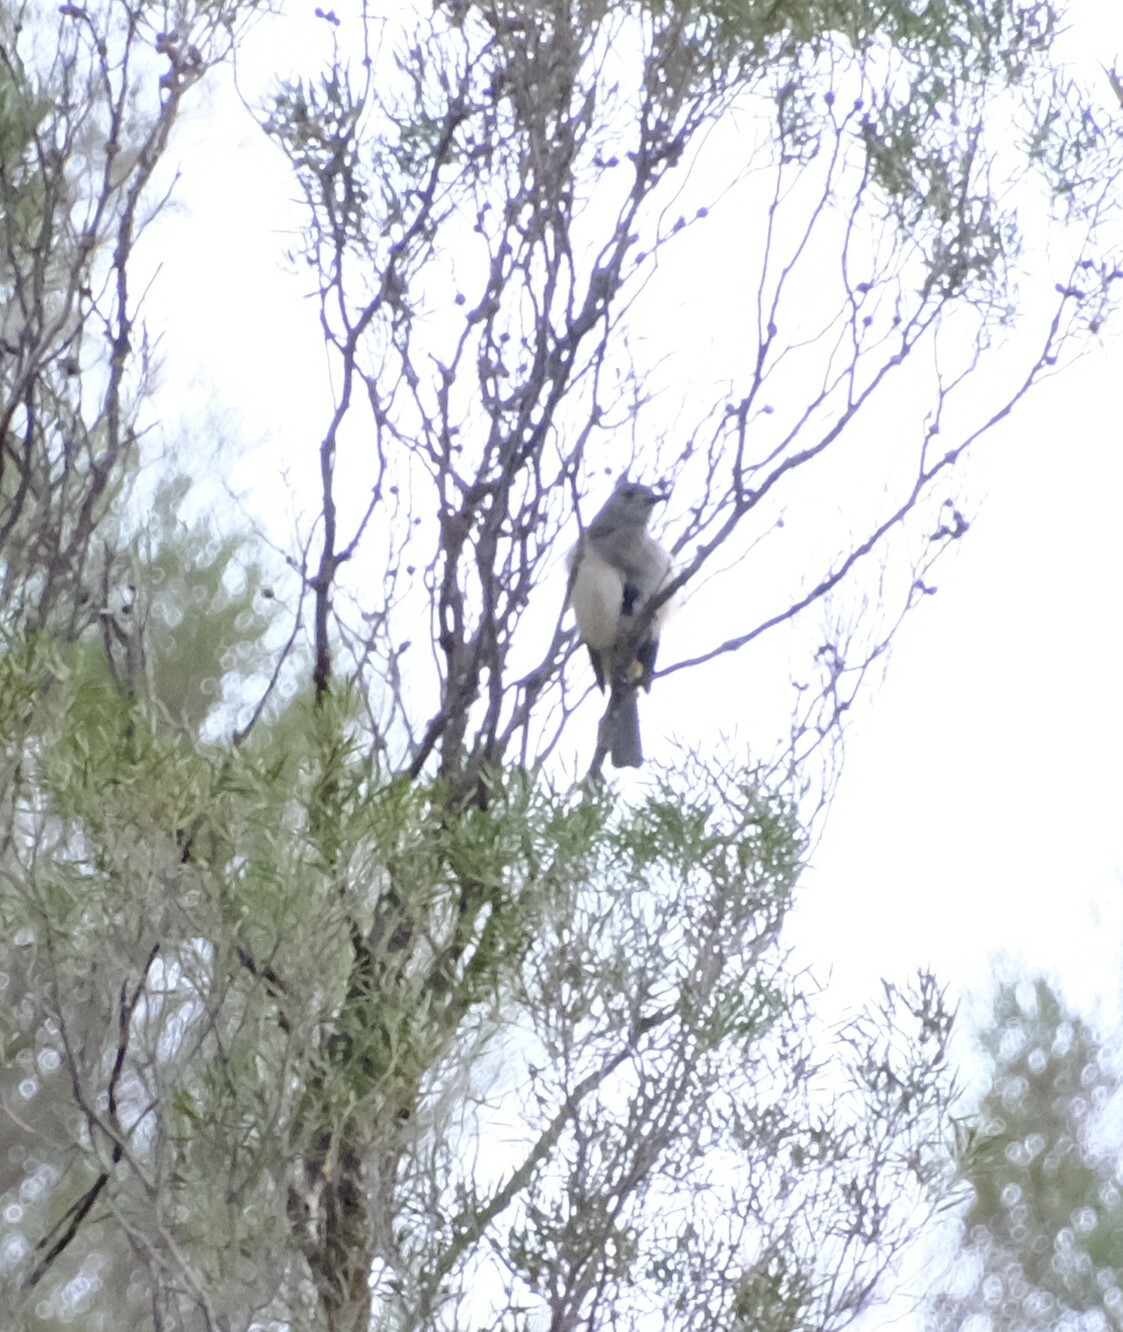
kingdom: Animalia
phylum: Chordata
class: Aves
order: Passeriformes
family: Pachycephalidae
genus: Colluricincla
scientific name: Colluricincla harmonica
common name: Grey shrikethrush
